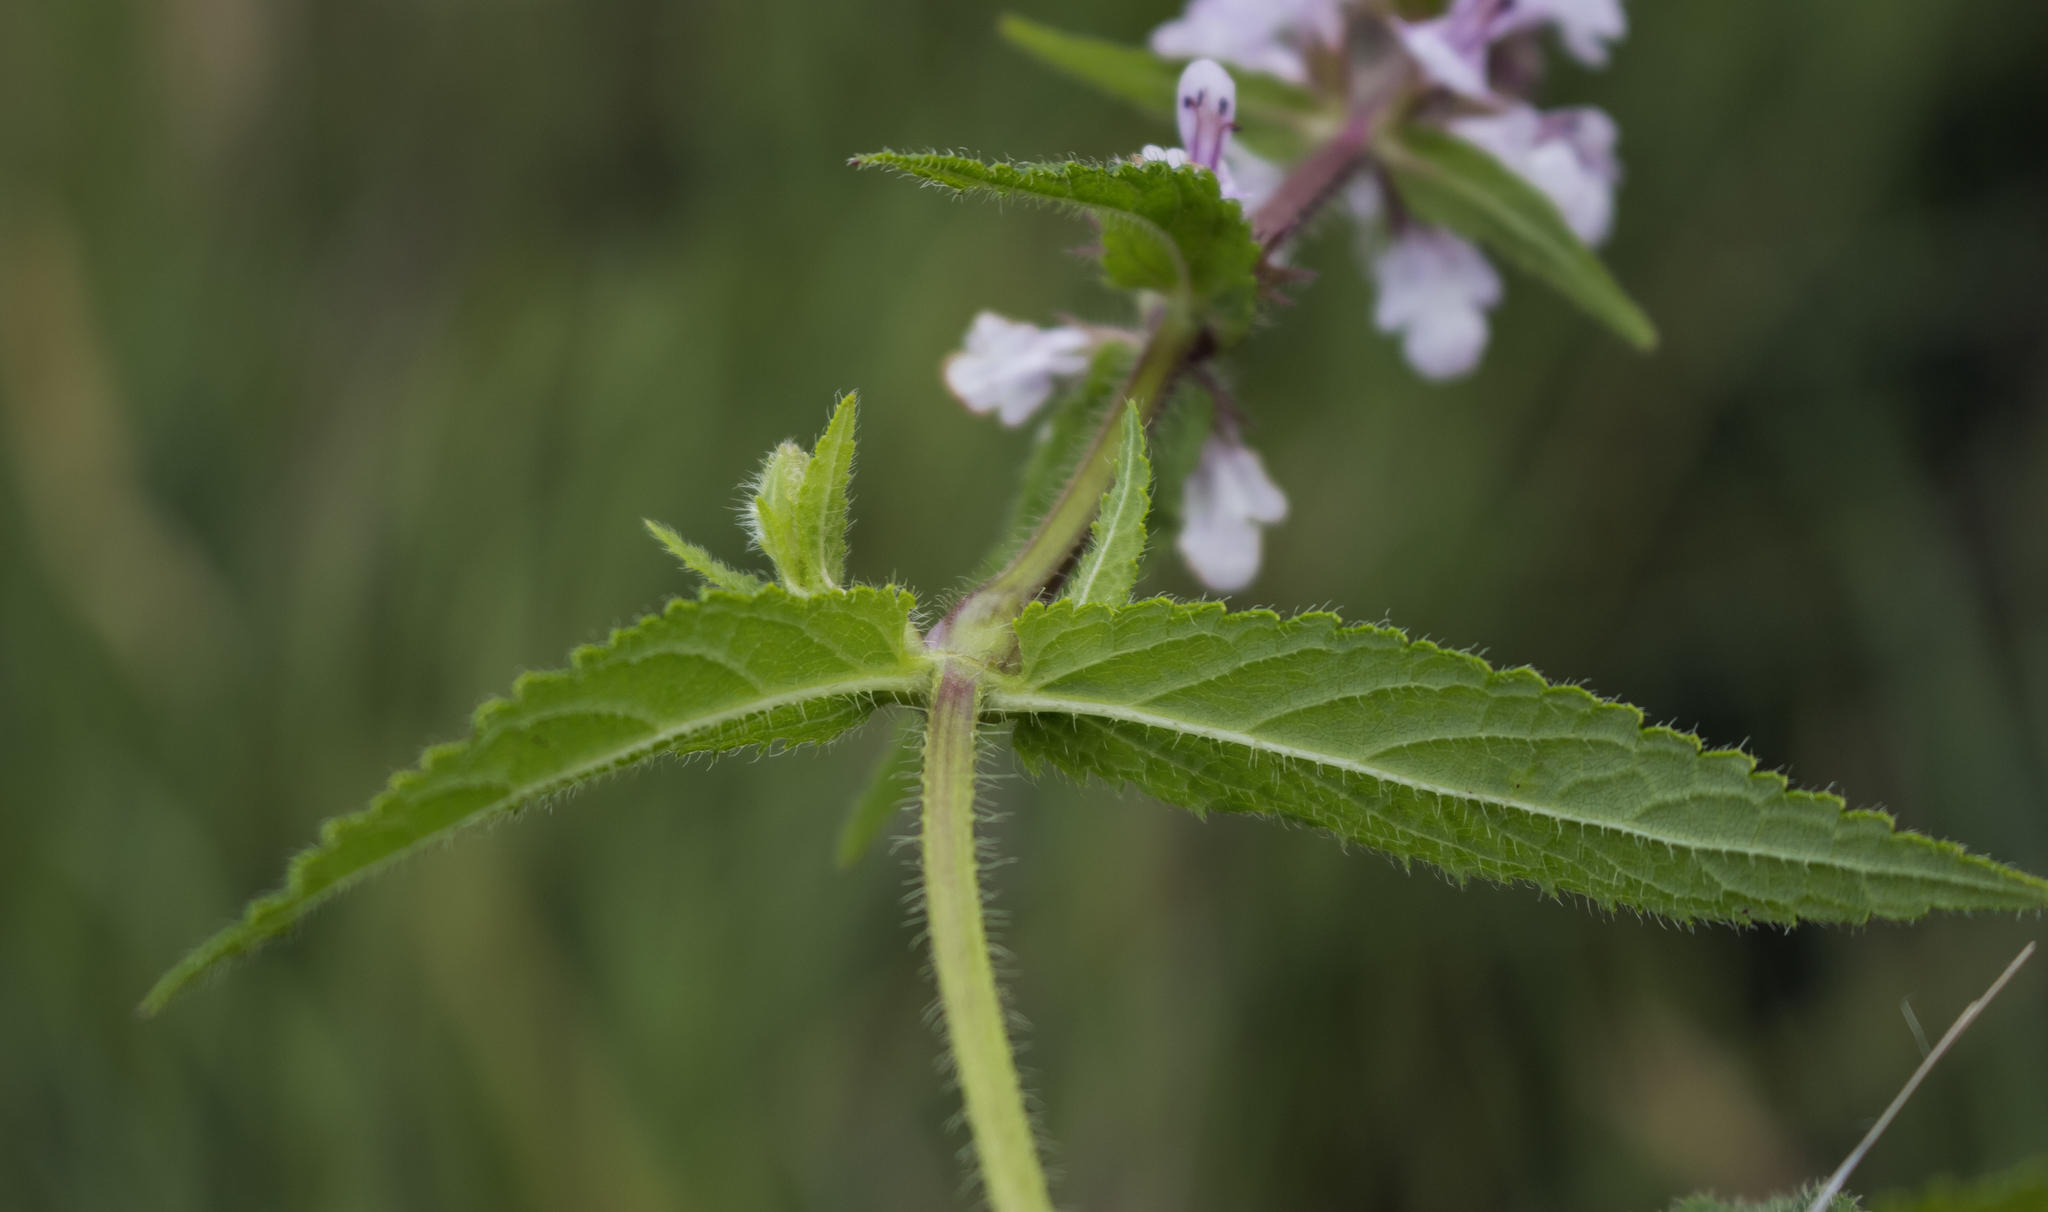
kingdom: Plantae
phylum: Tracheophyta
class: Magnoliopsida
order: Lamiales
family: Lamiaceae
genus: Stachys
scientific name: Stachys hispida
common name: Hispid hedge-nettle
